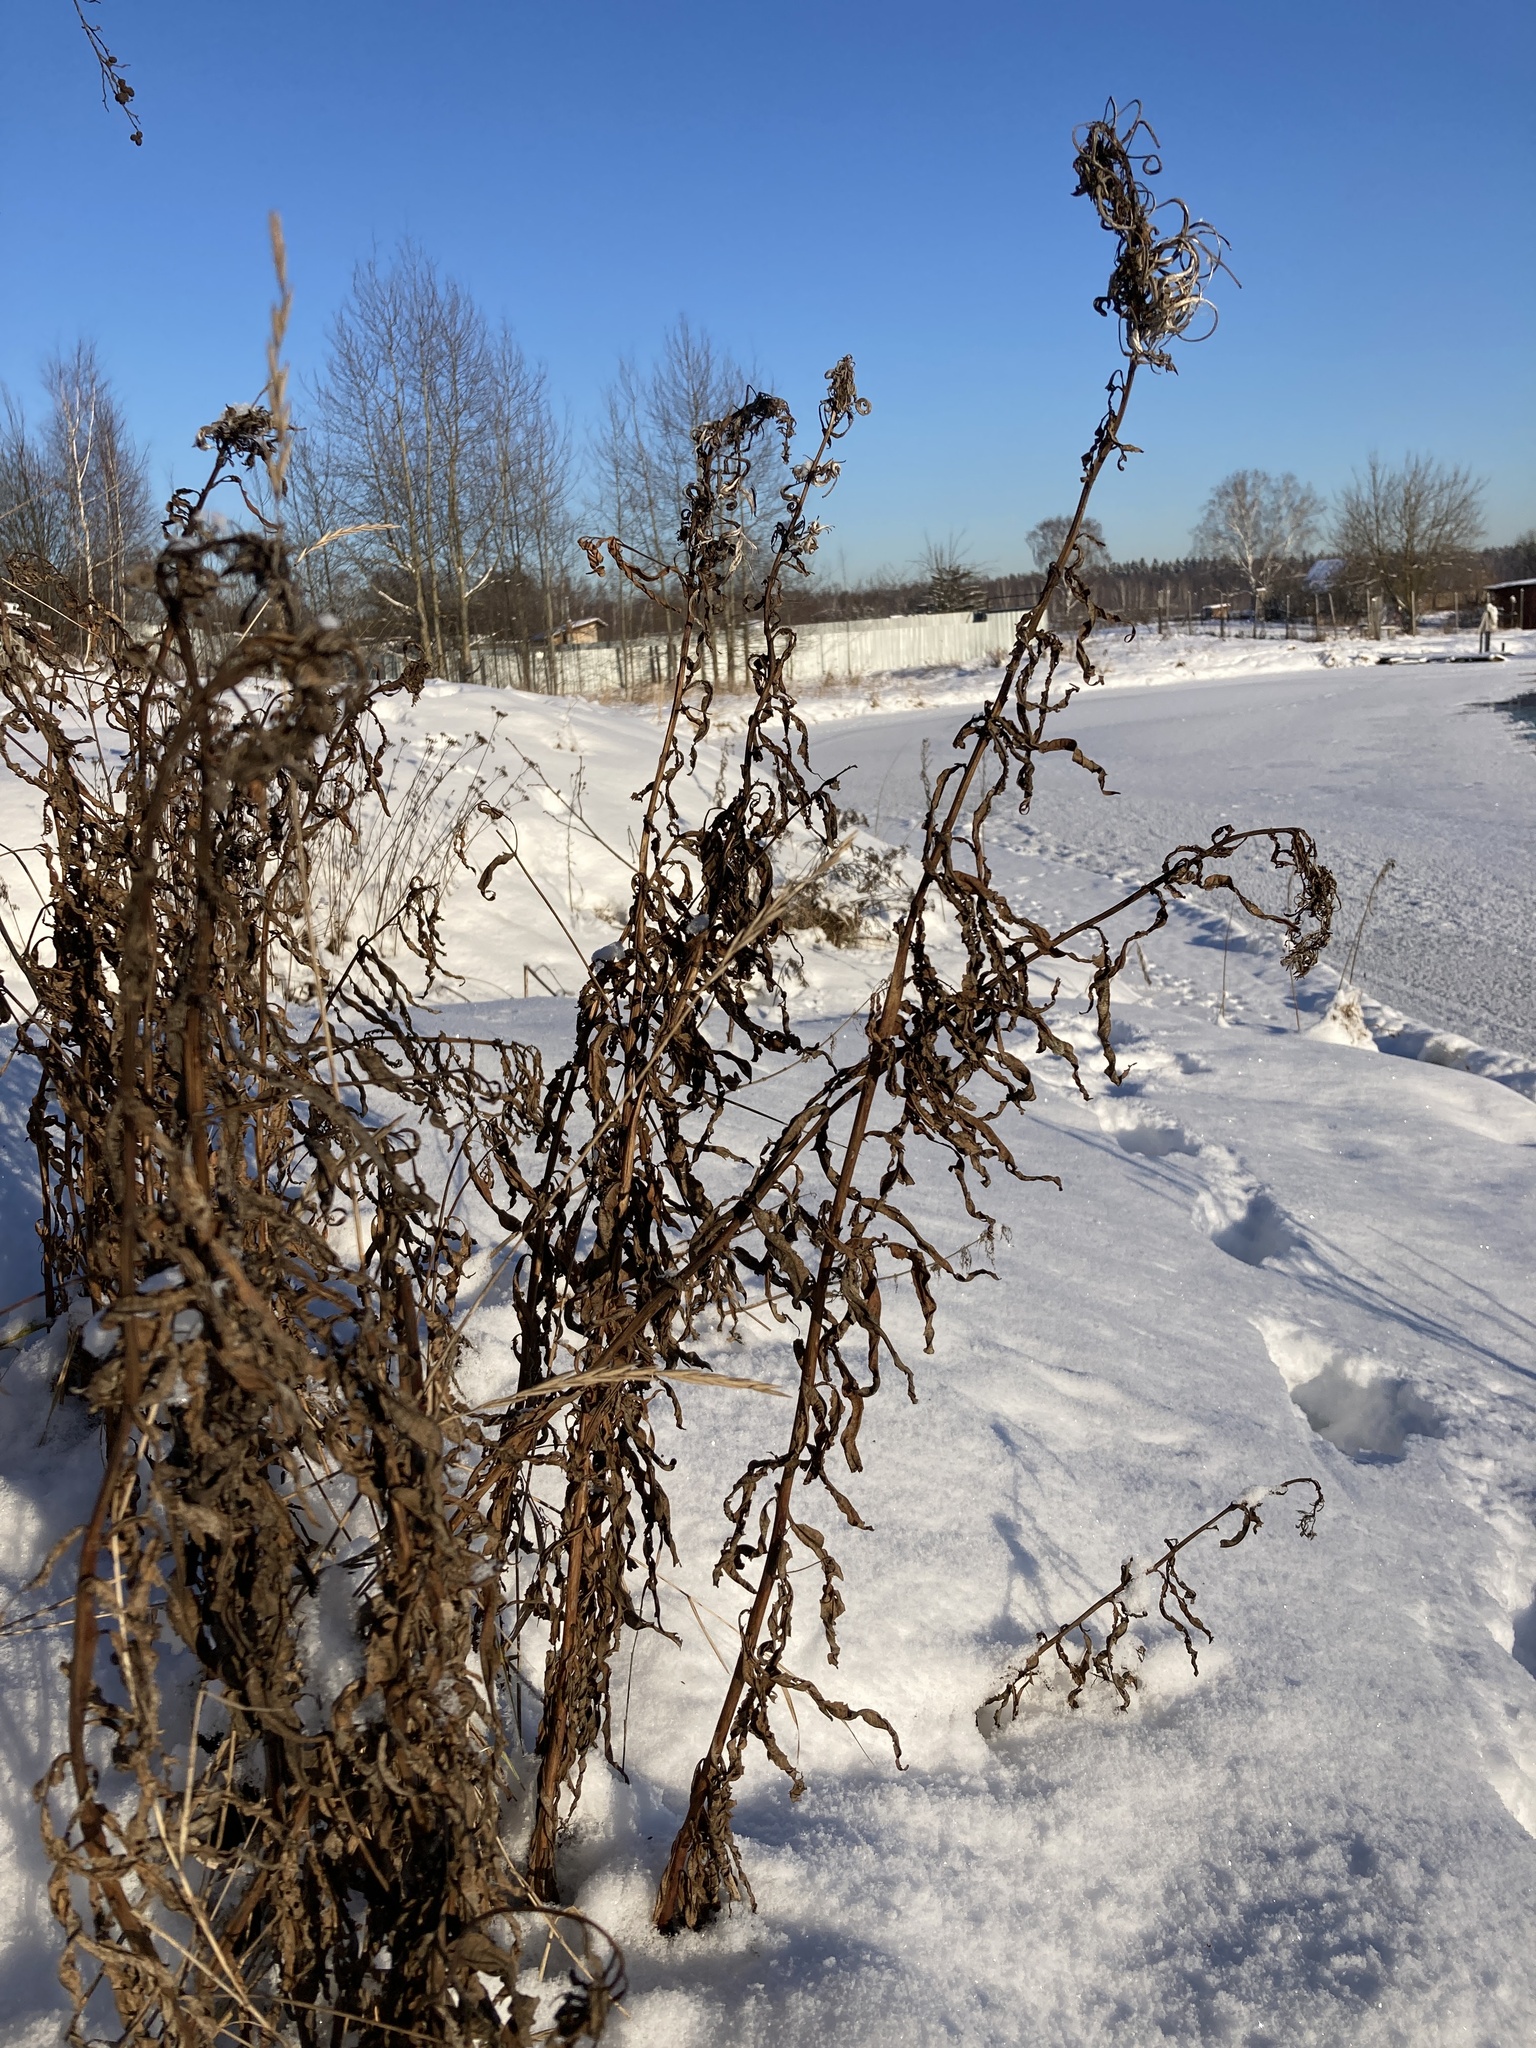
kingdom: Plantae
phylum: Tracheophyta
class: Magnoliopsida
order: Myrtales
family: Onagraceae
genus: Chamaenerion
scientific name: Chamaenerion angustifolium
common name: Fireweed
